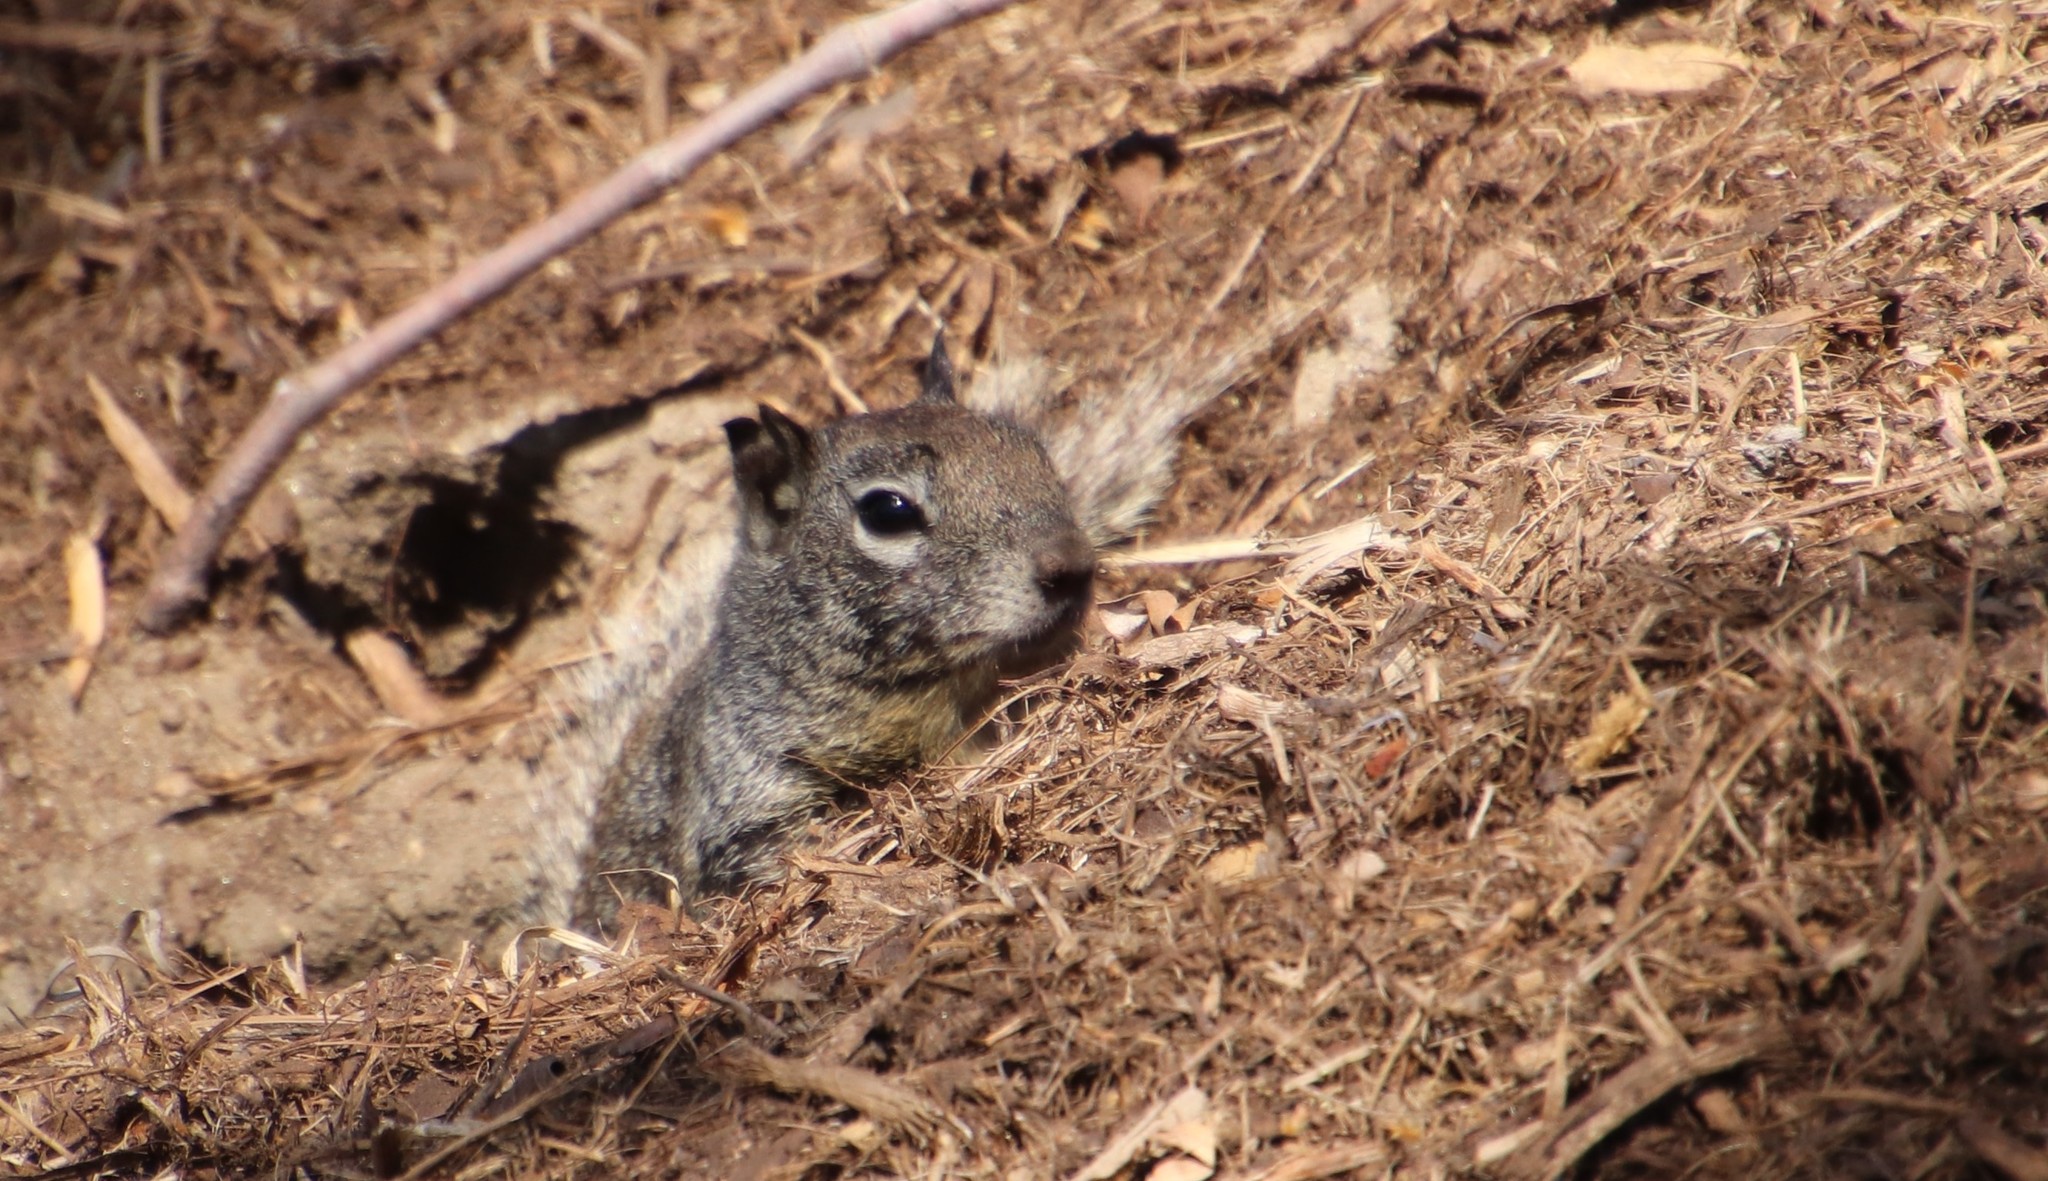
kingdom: Animalia
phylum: Chordata
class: Mammalia
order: Rodentia
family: Sciuridae
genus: Otospermophilus
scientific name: Otospermophilus beecheyi
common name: California ground squirrel
